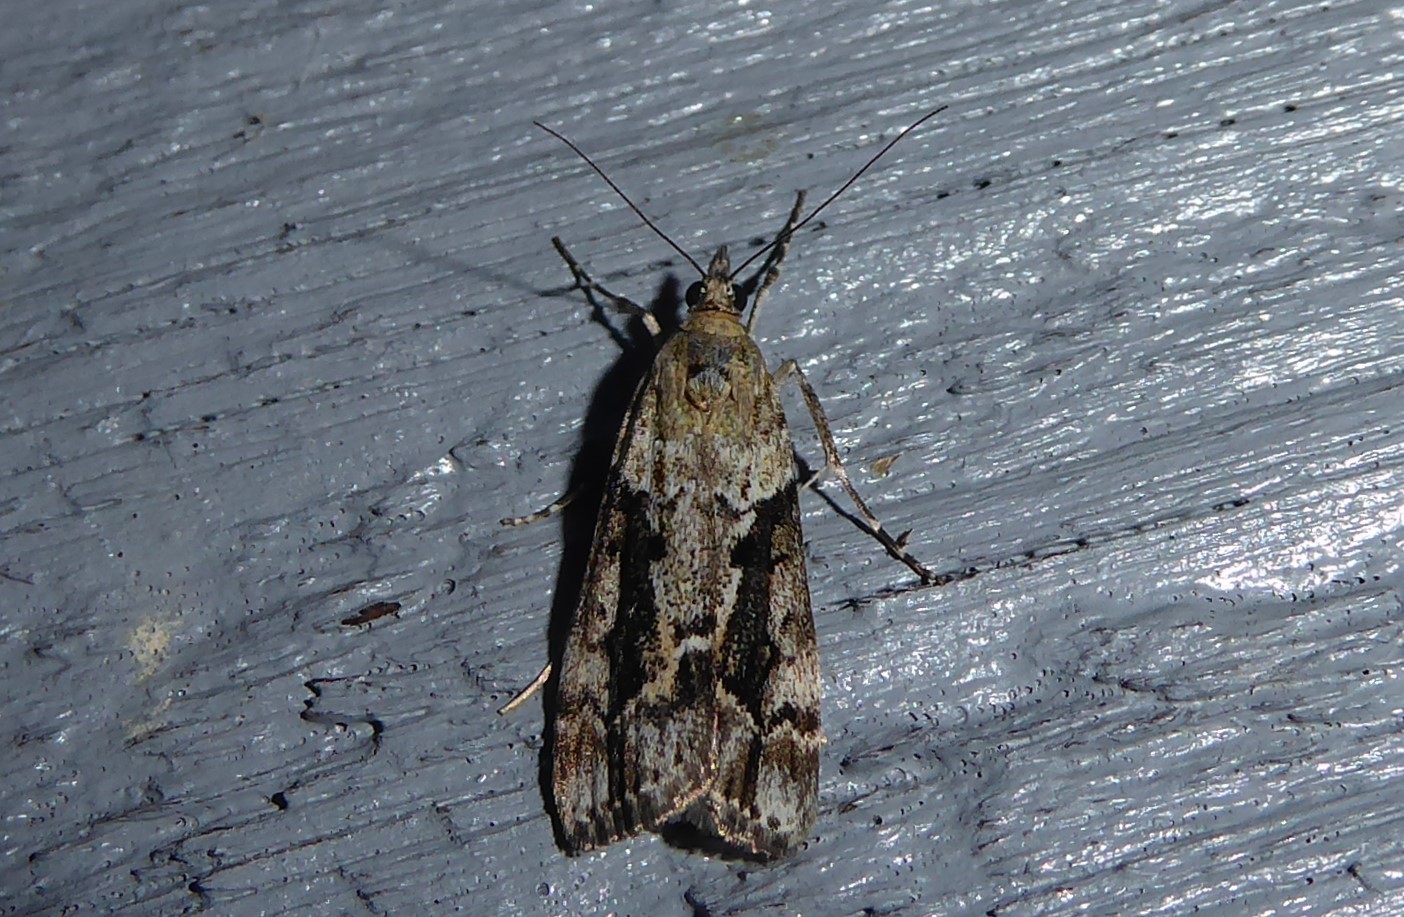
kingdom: Animalia
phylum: Arthropoda
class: Insecta
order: Lepidoptera
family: Crambidae
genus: Eudonia
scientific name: Eudonia submarginalis
